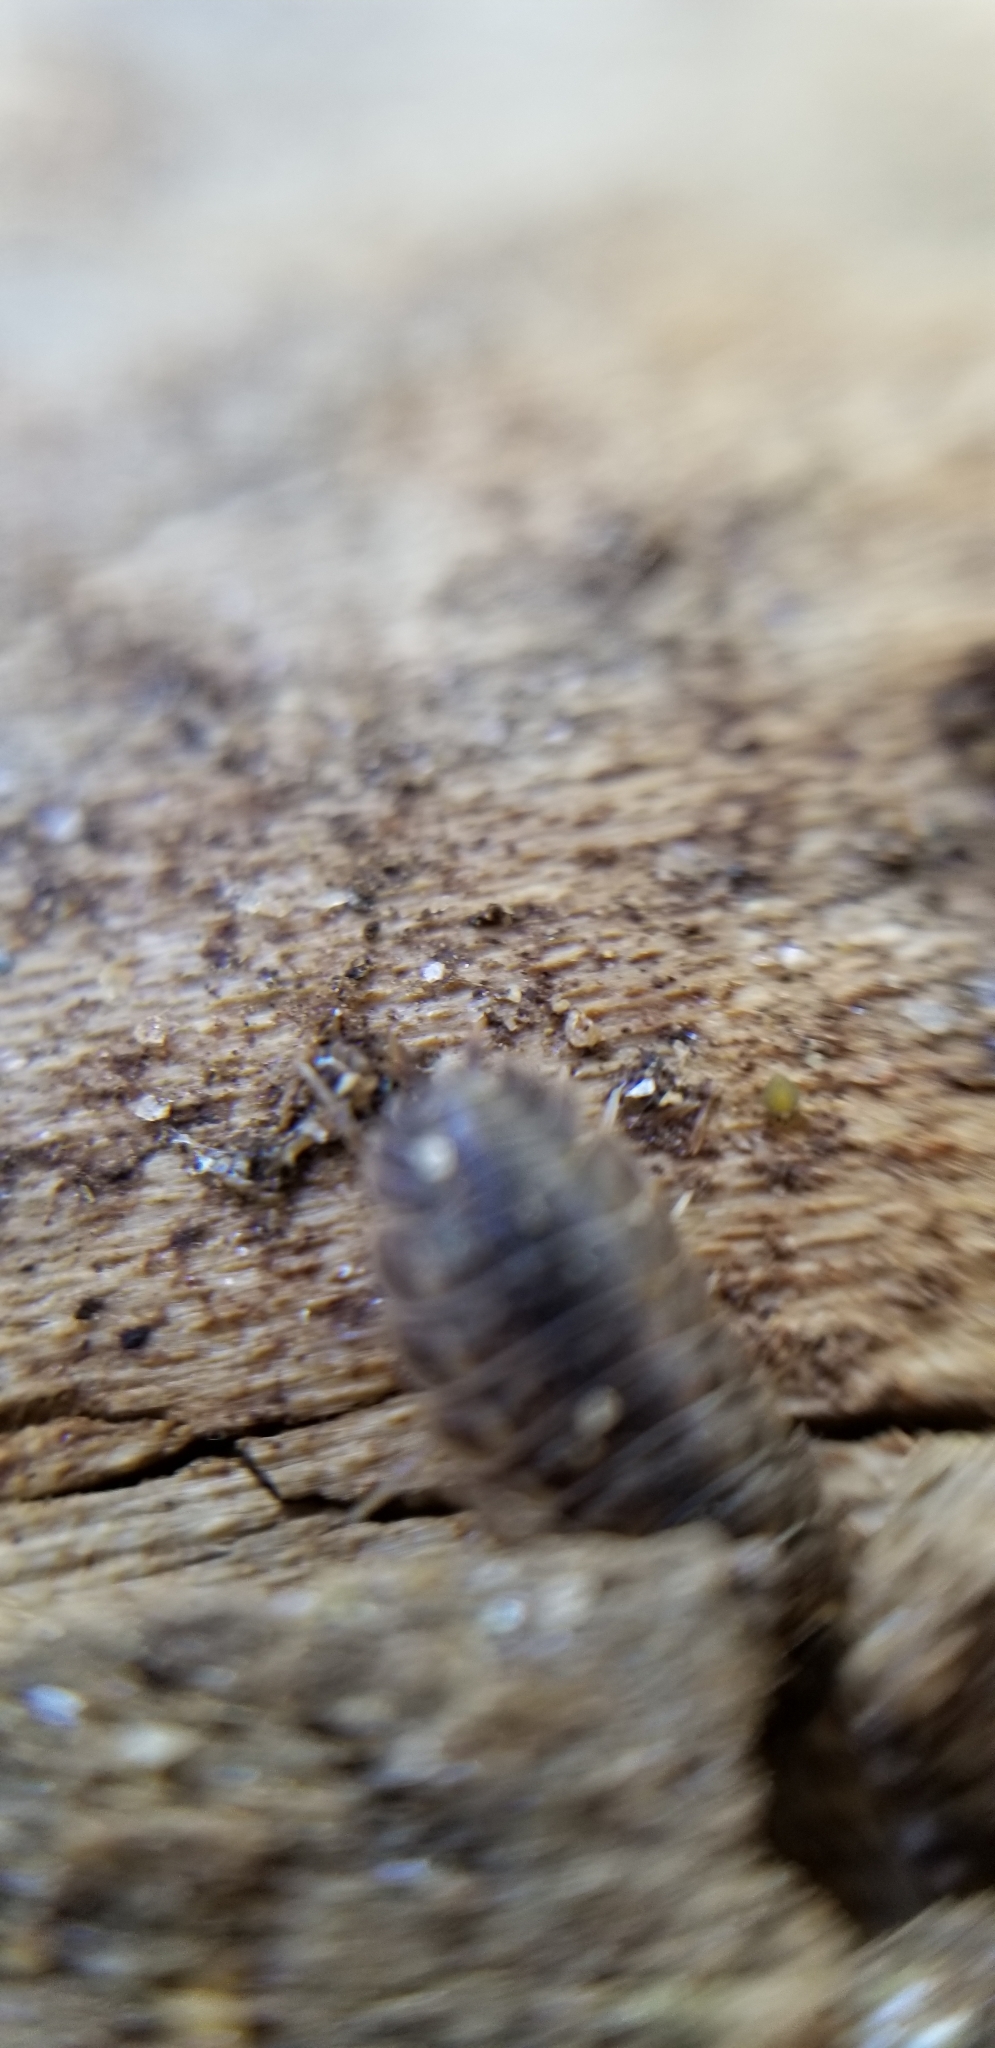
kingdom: Animalia
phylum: Arthropoda
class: Malacostraca
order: Isopoda
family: Trachelipodidae
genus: Trachelipus
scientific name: Trachelipus rathkii
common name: Isopod
